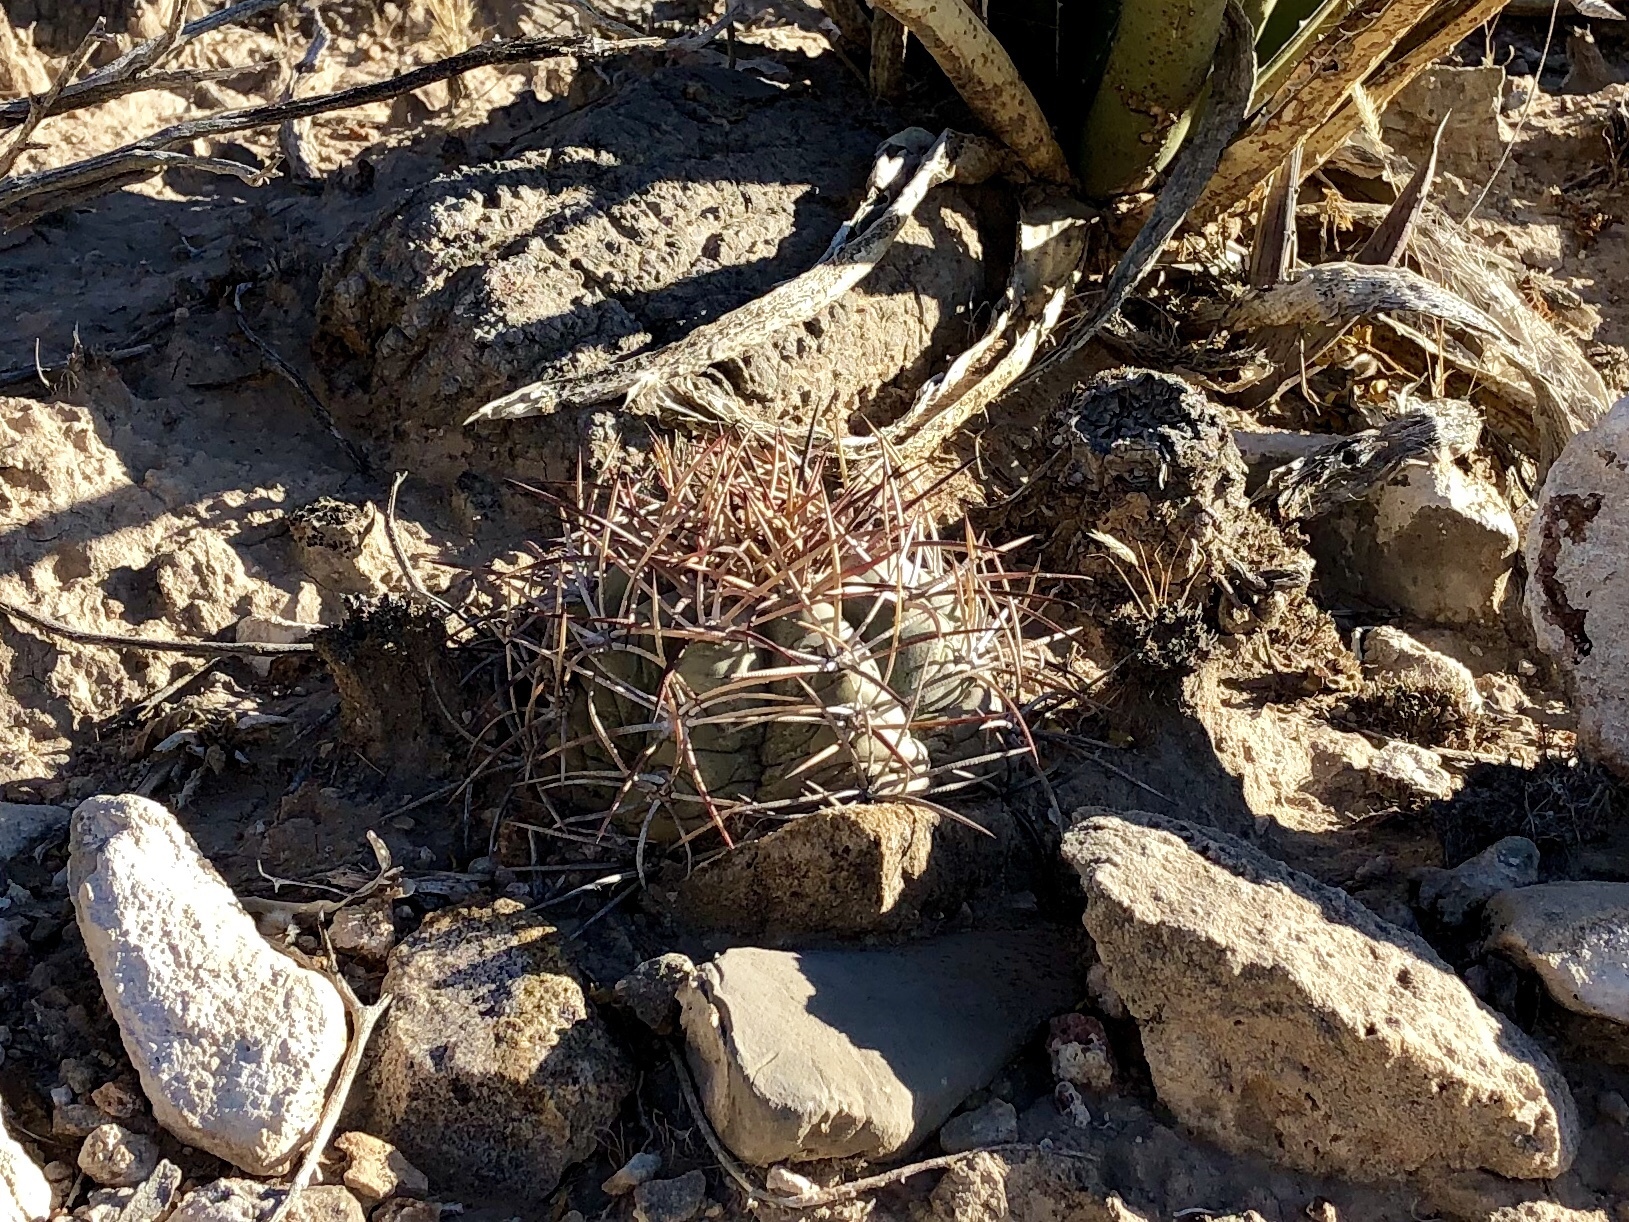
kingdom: Plantae
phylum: Tracheophyta
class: Magnoliopsida
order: Caryophyllales
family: Cactaceae
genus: Echinocactus
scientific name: Echinocactus horizonthalonius
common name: Devilshead
